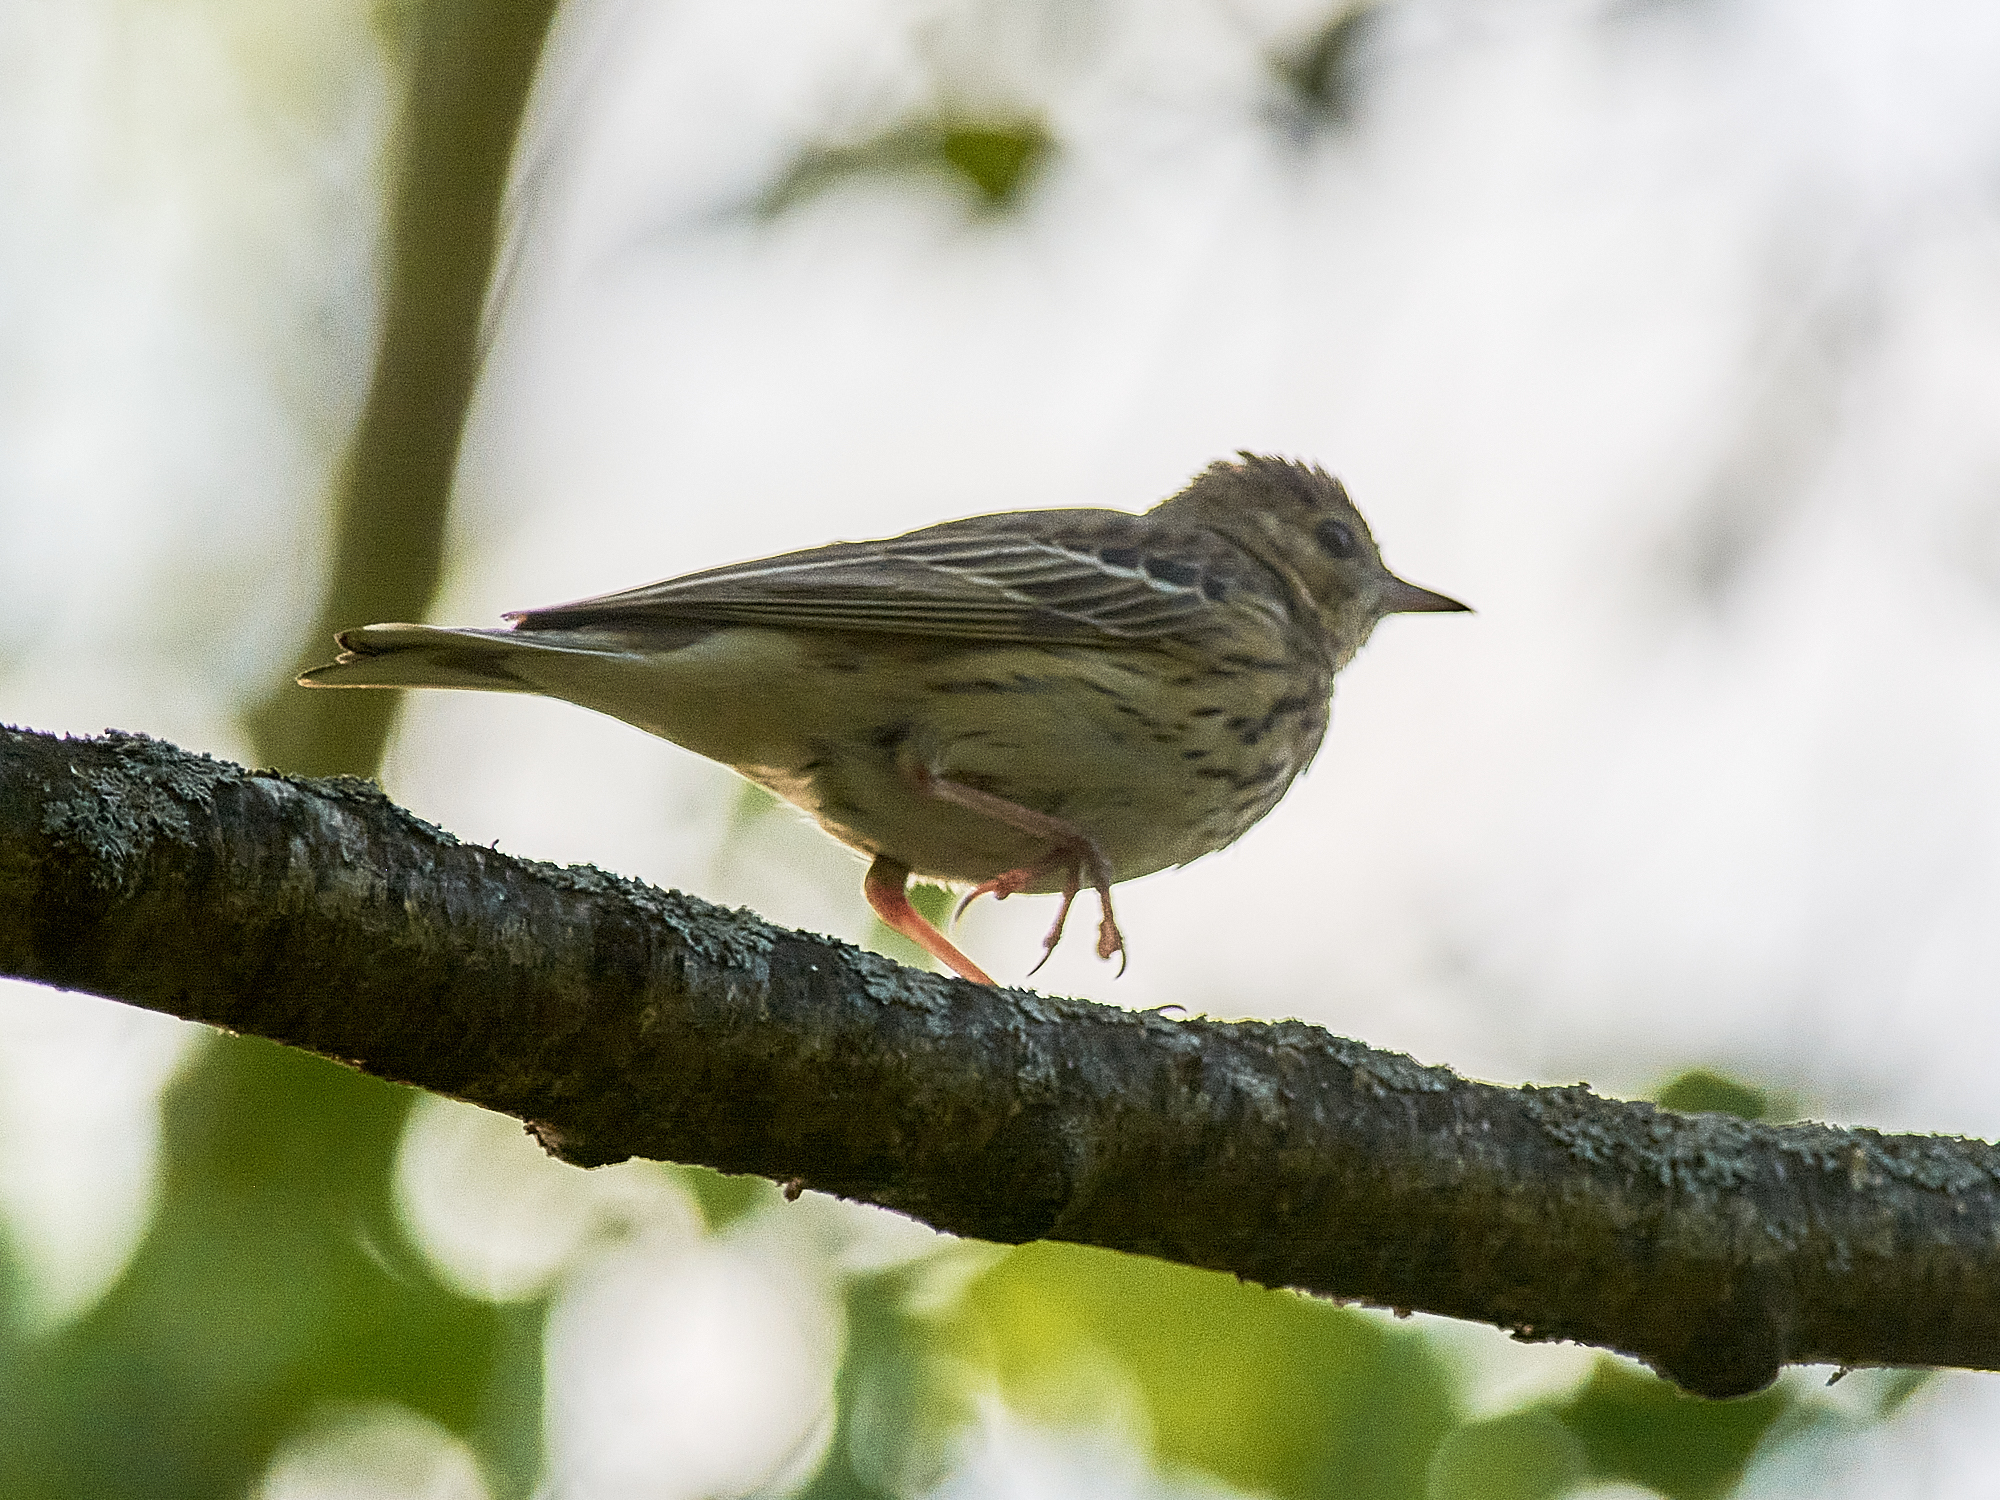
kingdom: Animalia
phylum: Chordata
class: Aves
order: Passeriformes
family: Motacillidae
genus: Anthus
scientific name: Anthus trivialis
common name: Tree pipit
